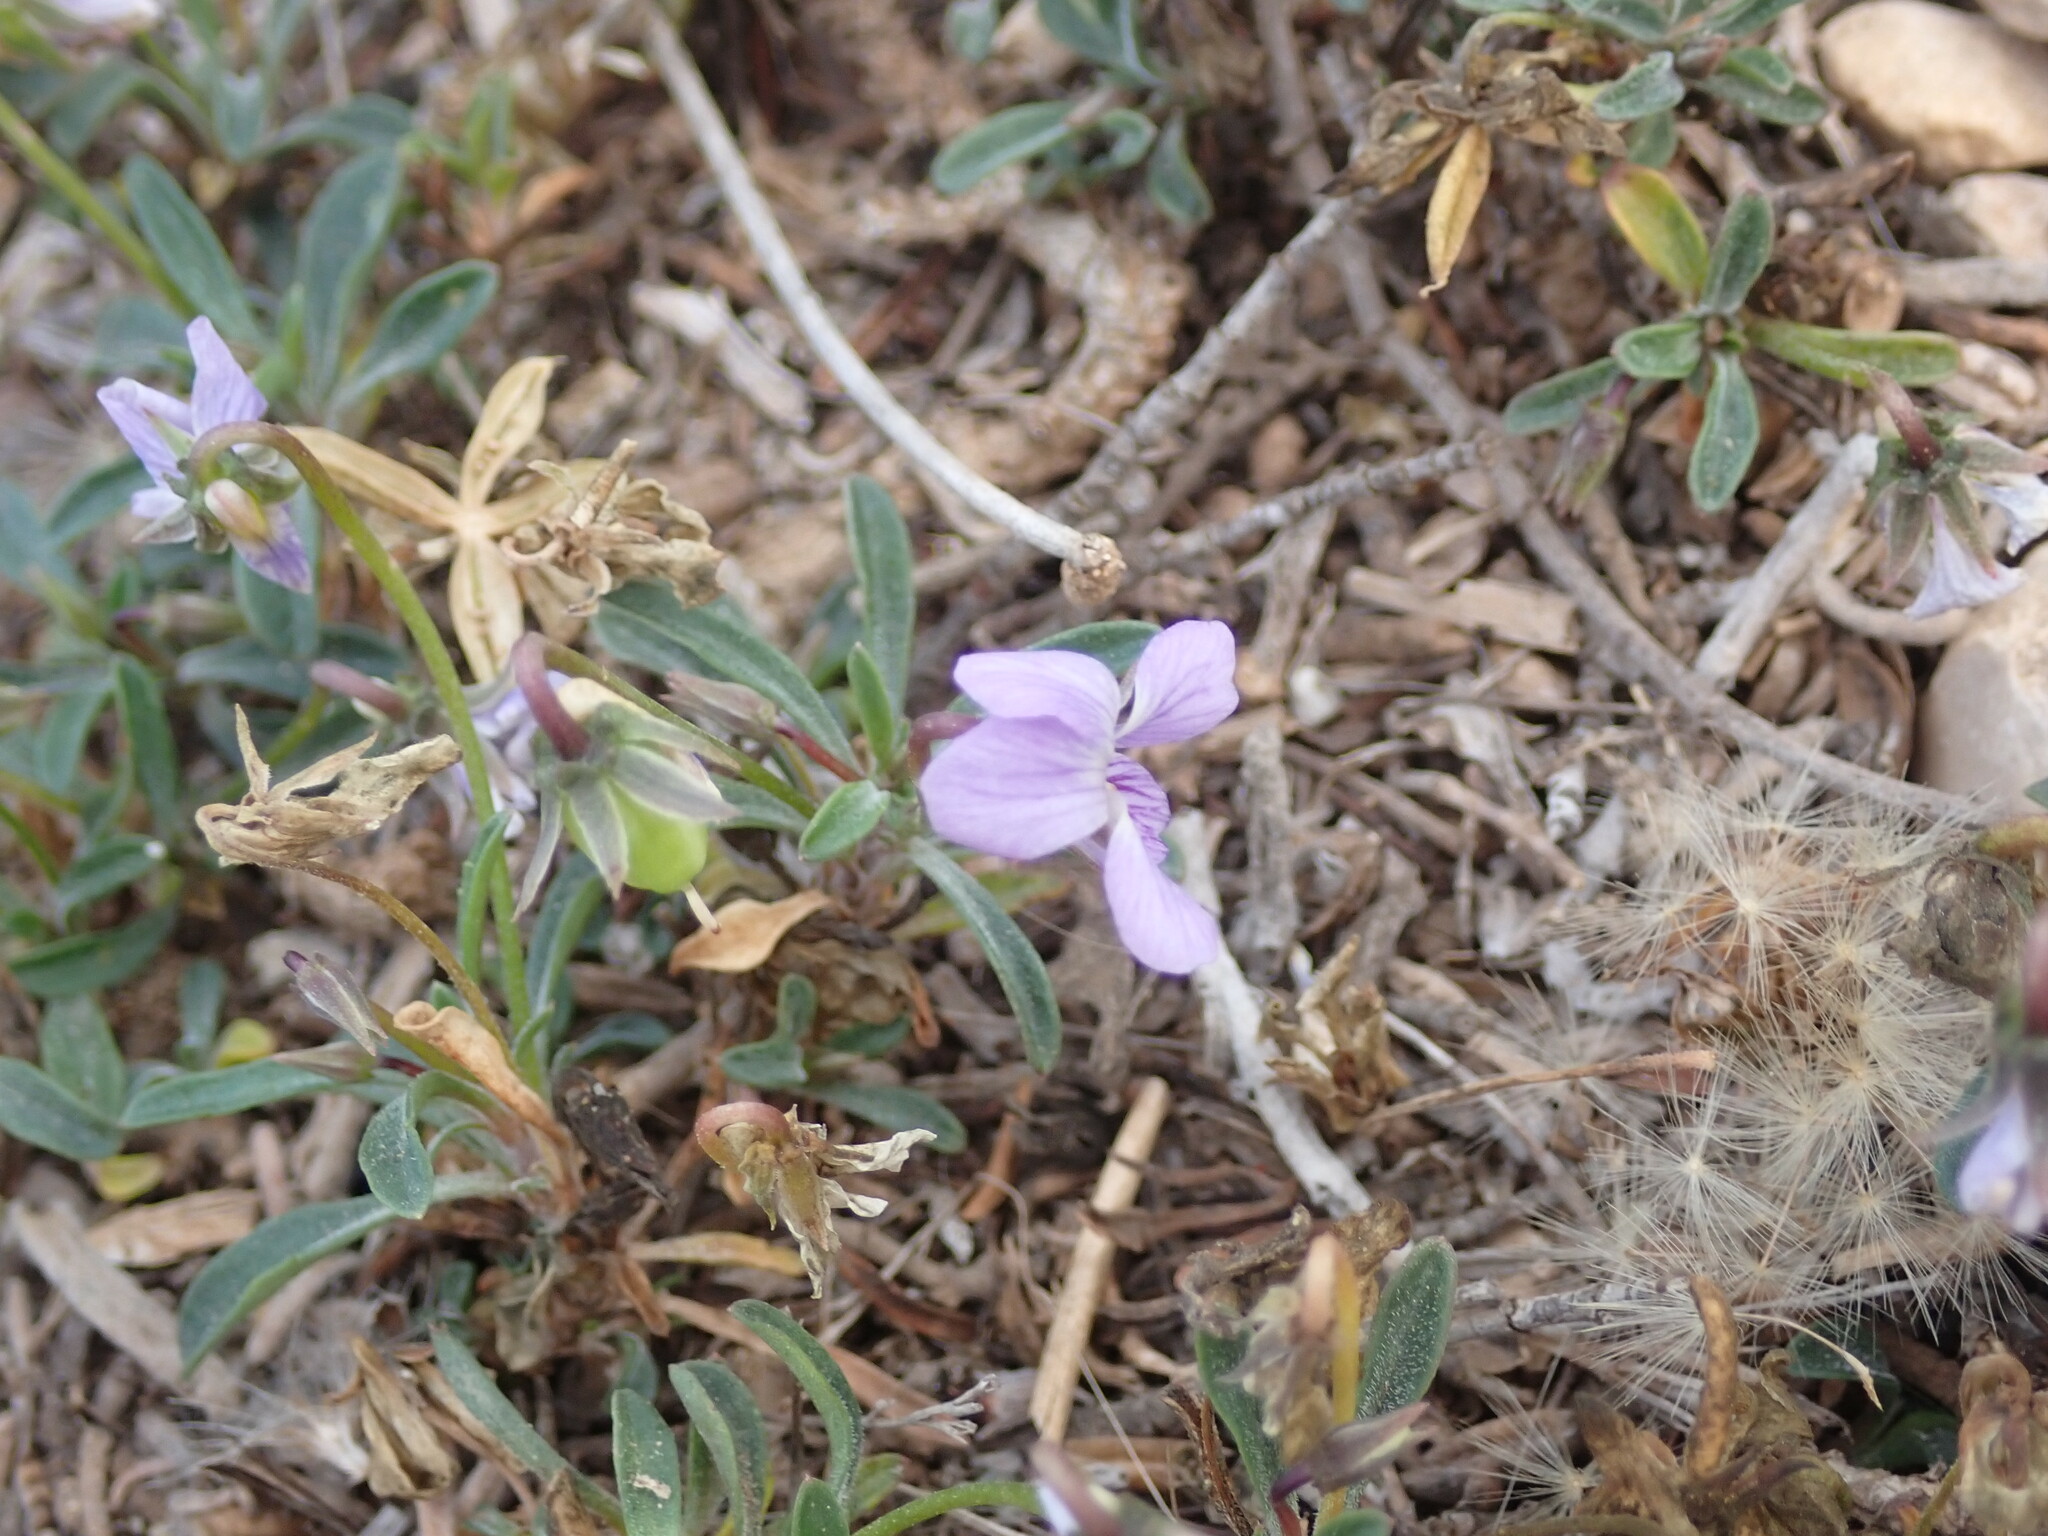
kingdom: Plantae
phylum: Tracheophyta
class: Magnoliopsida
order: Malpighiales
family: Violaceae
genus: Viola
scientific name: Viola arborescens
